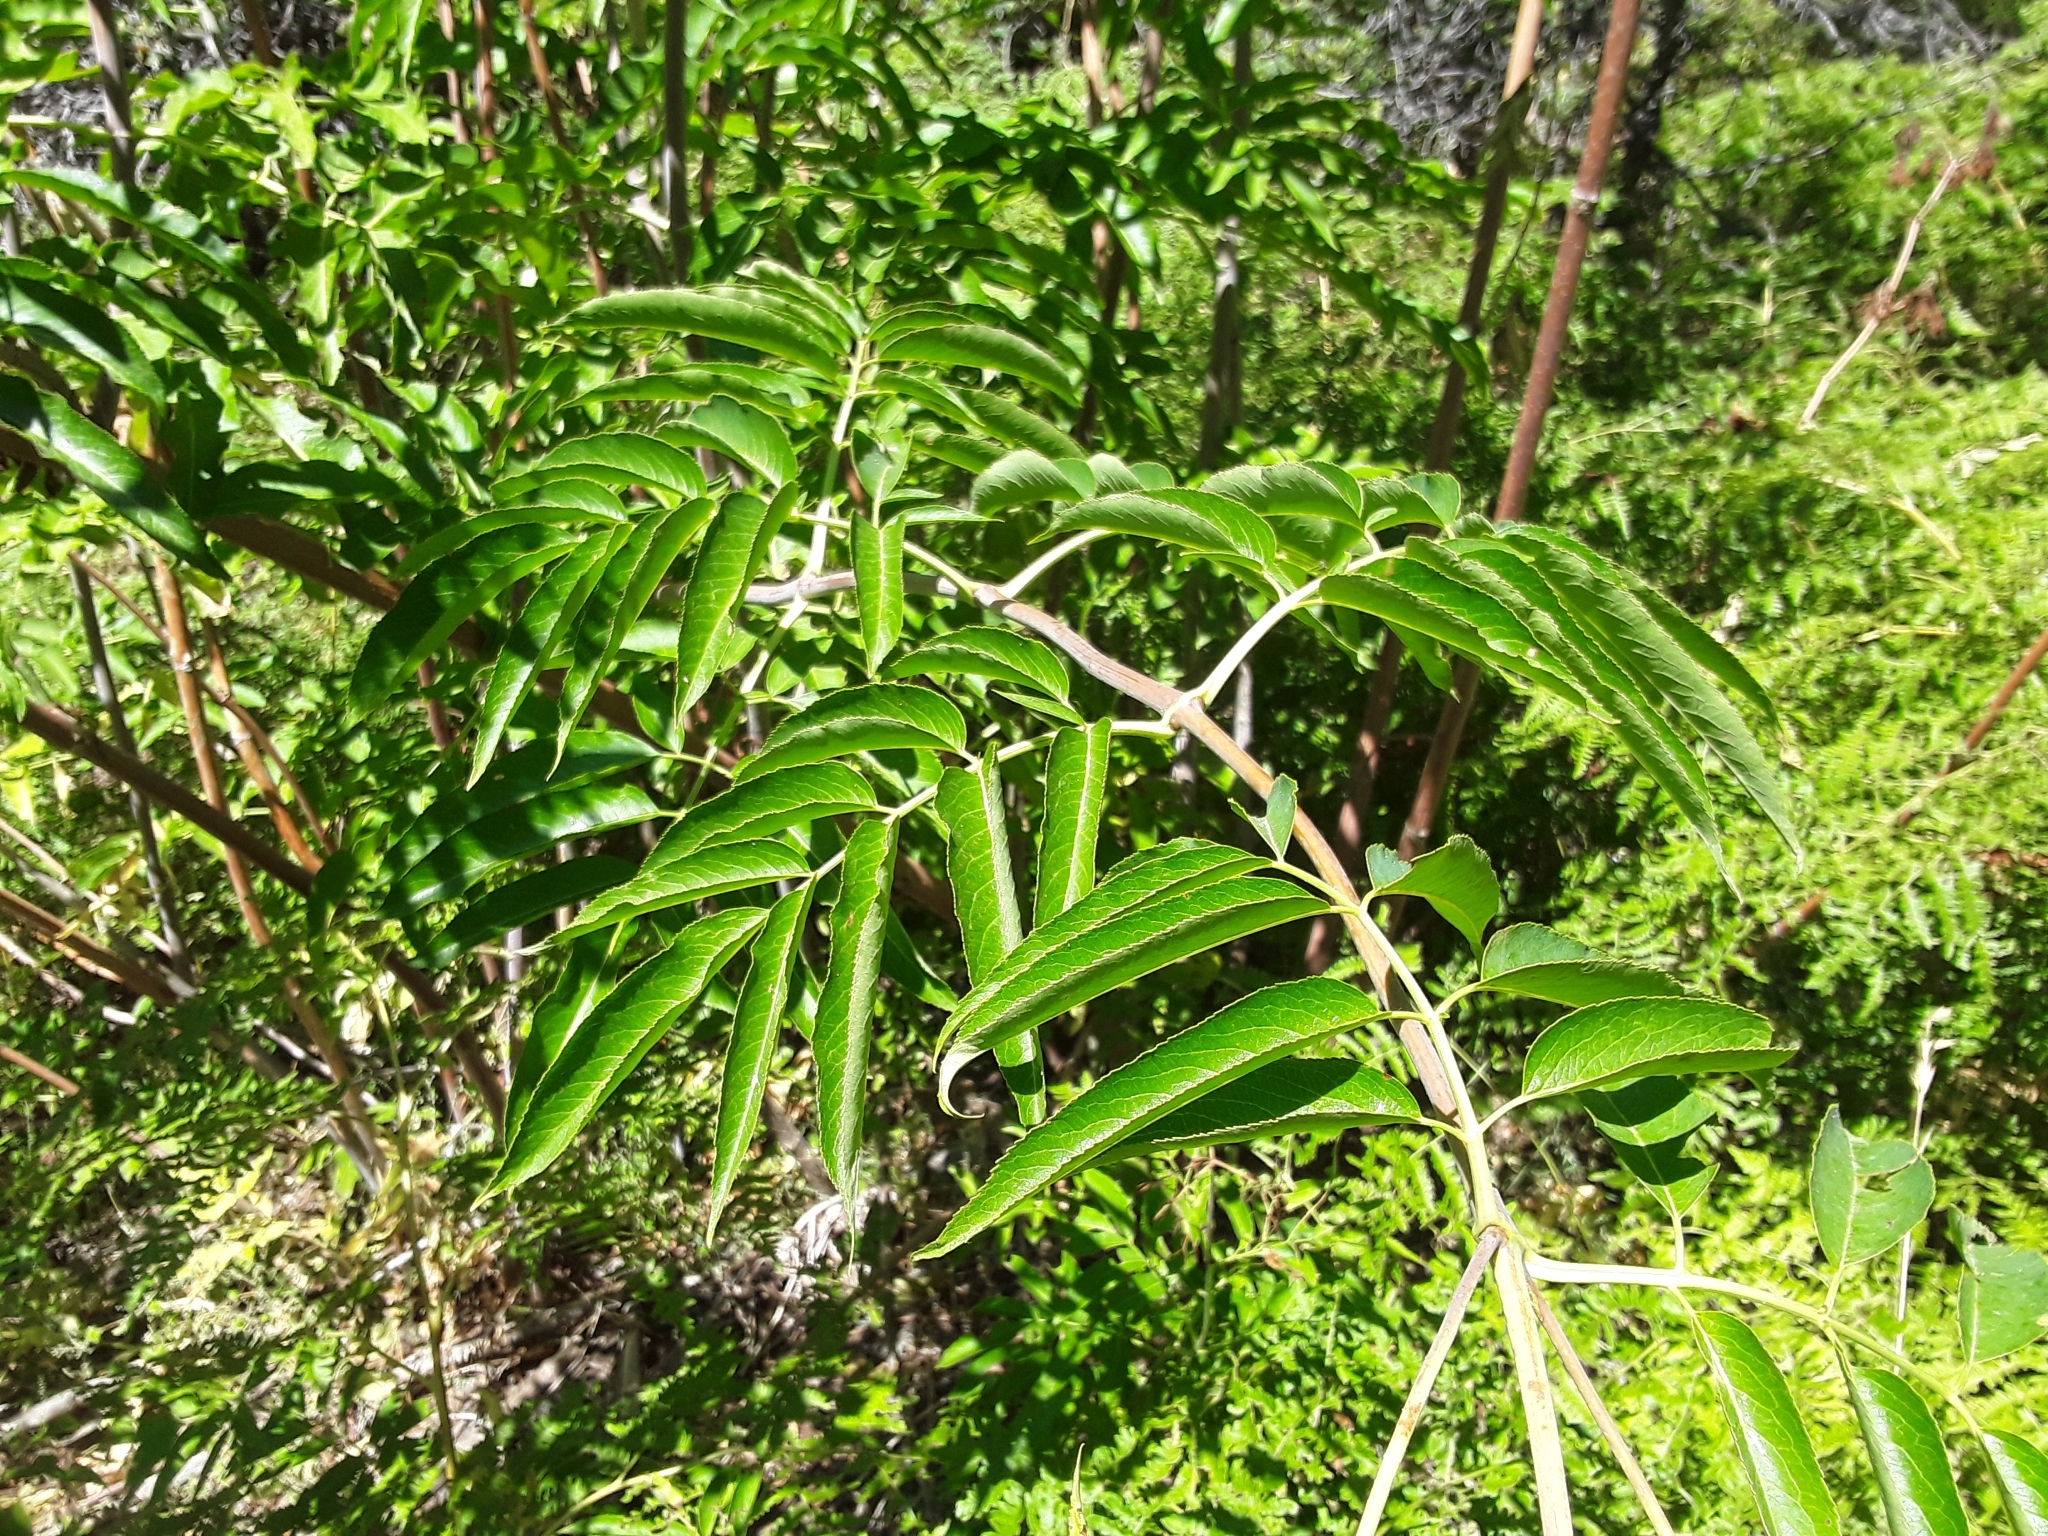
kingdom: Plantae
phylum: Tracheophyta
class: Magnoliopsida
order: Dipsacales
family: Viburnaceae
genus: Sambucus
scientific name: Sambucus cerulea
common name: Blue elder
